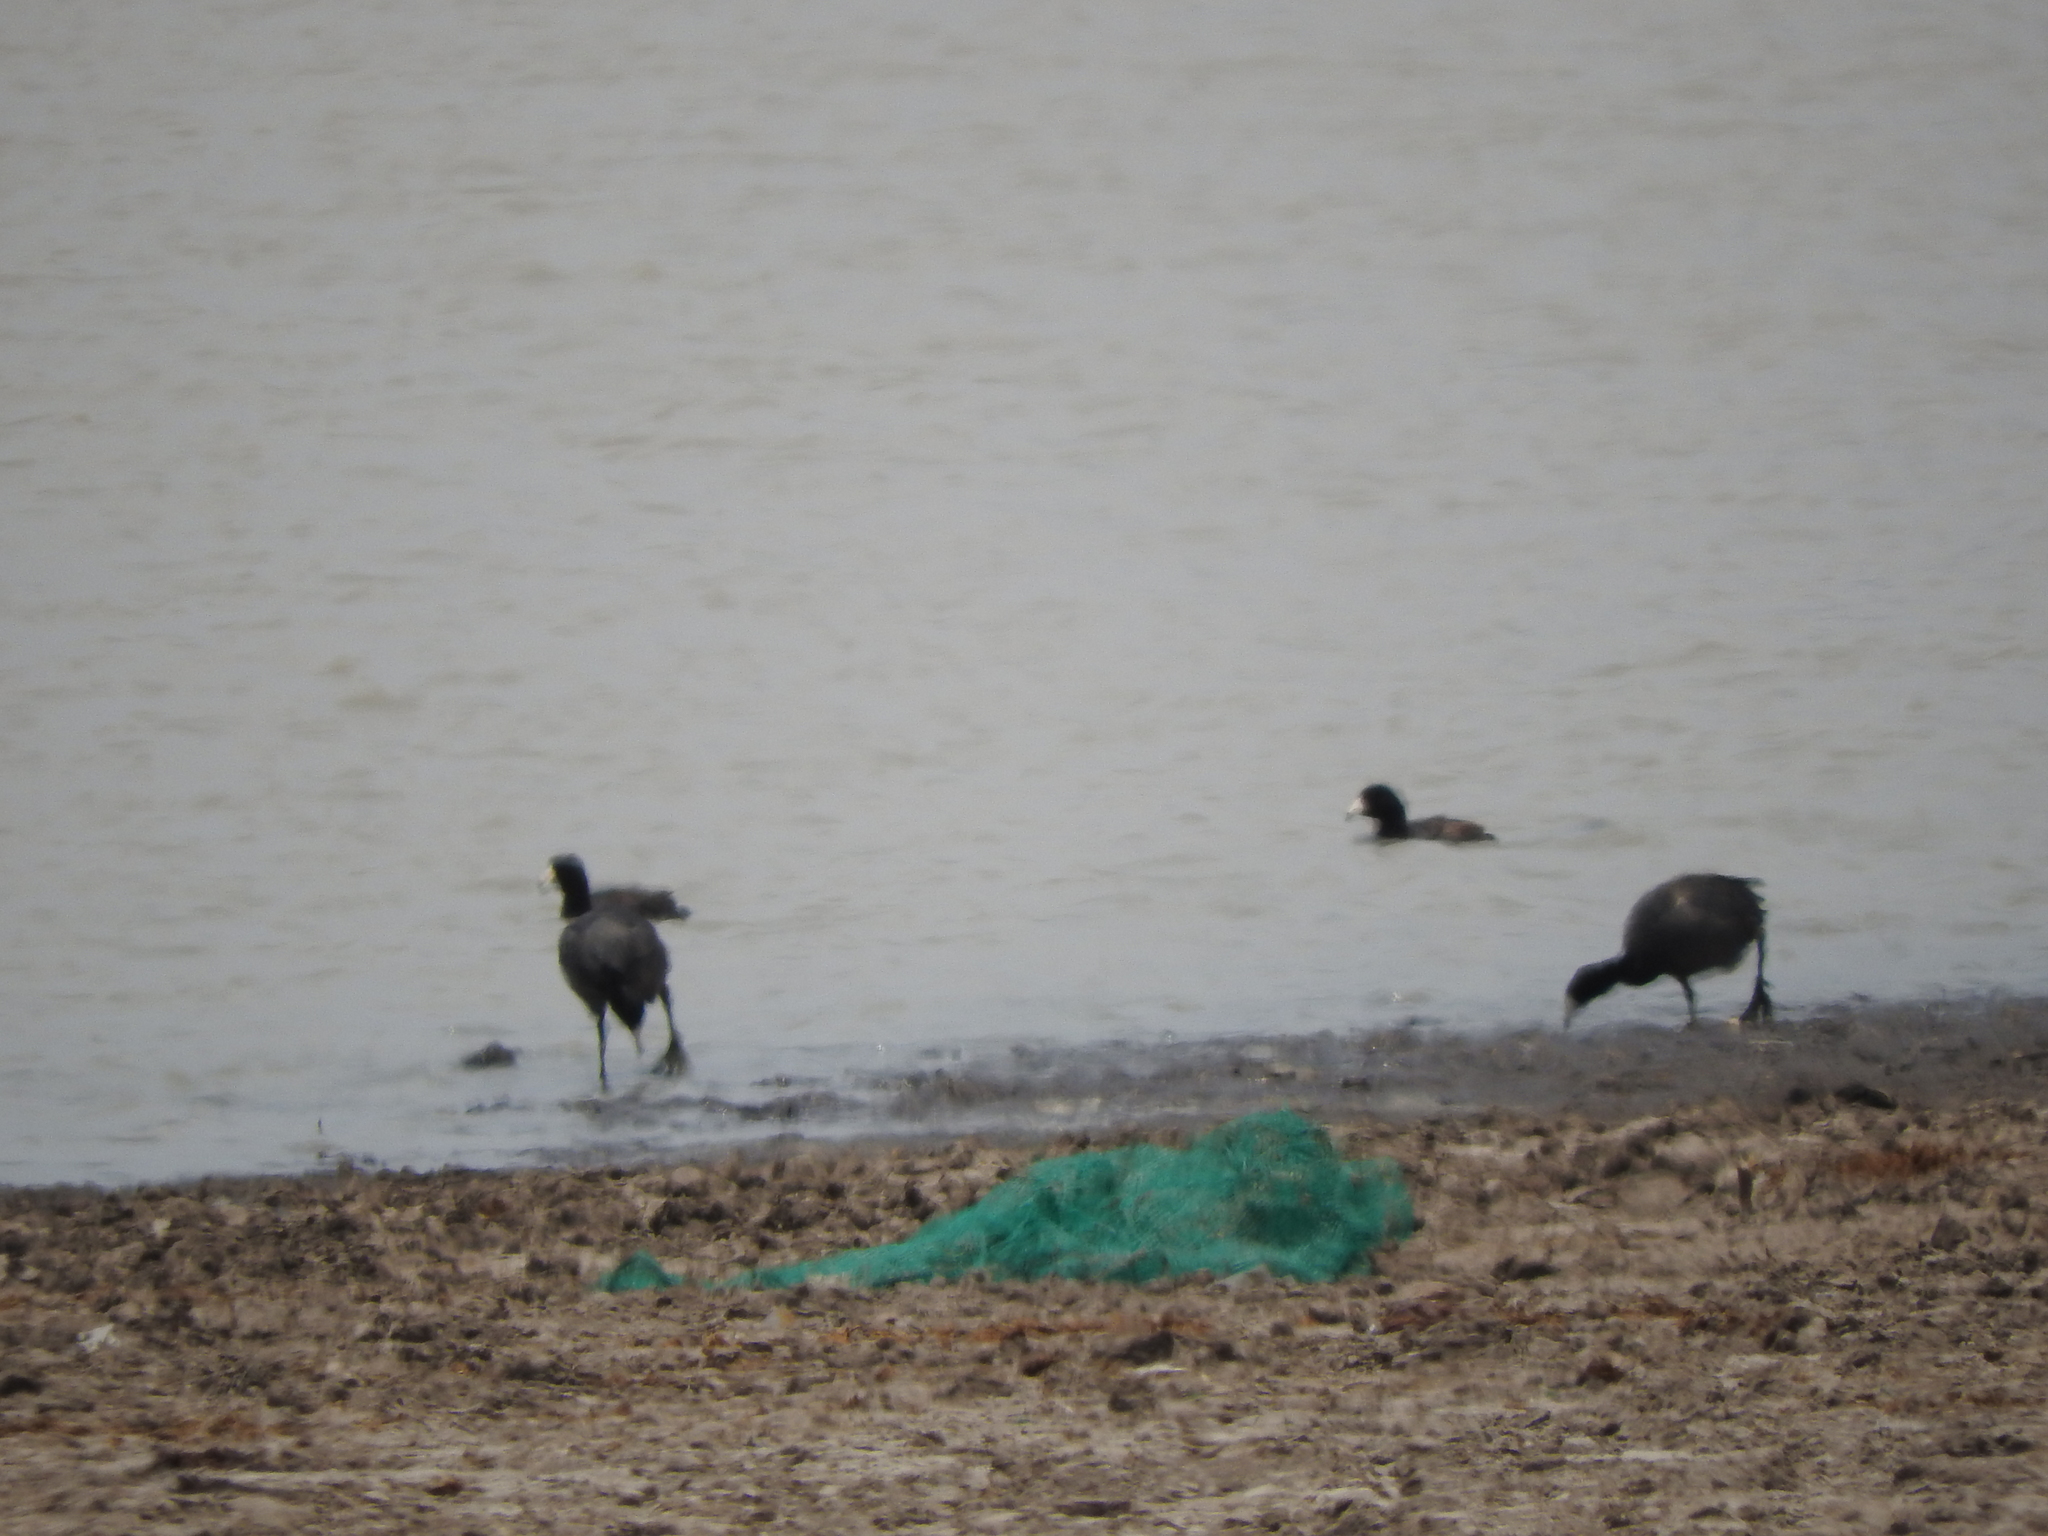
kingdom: Animalia
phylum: Chordata
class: Aves
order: Gruiformes
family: Rallidae
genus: Fulica
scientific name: Fulica americana
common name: American coot
